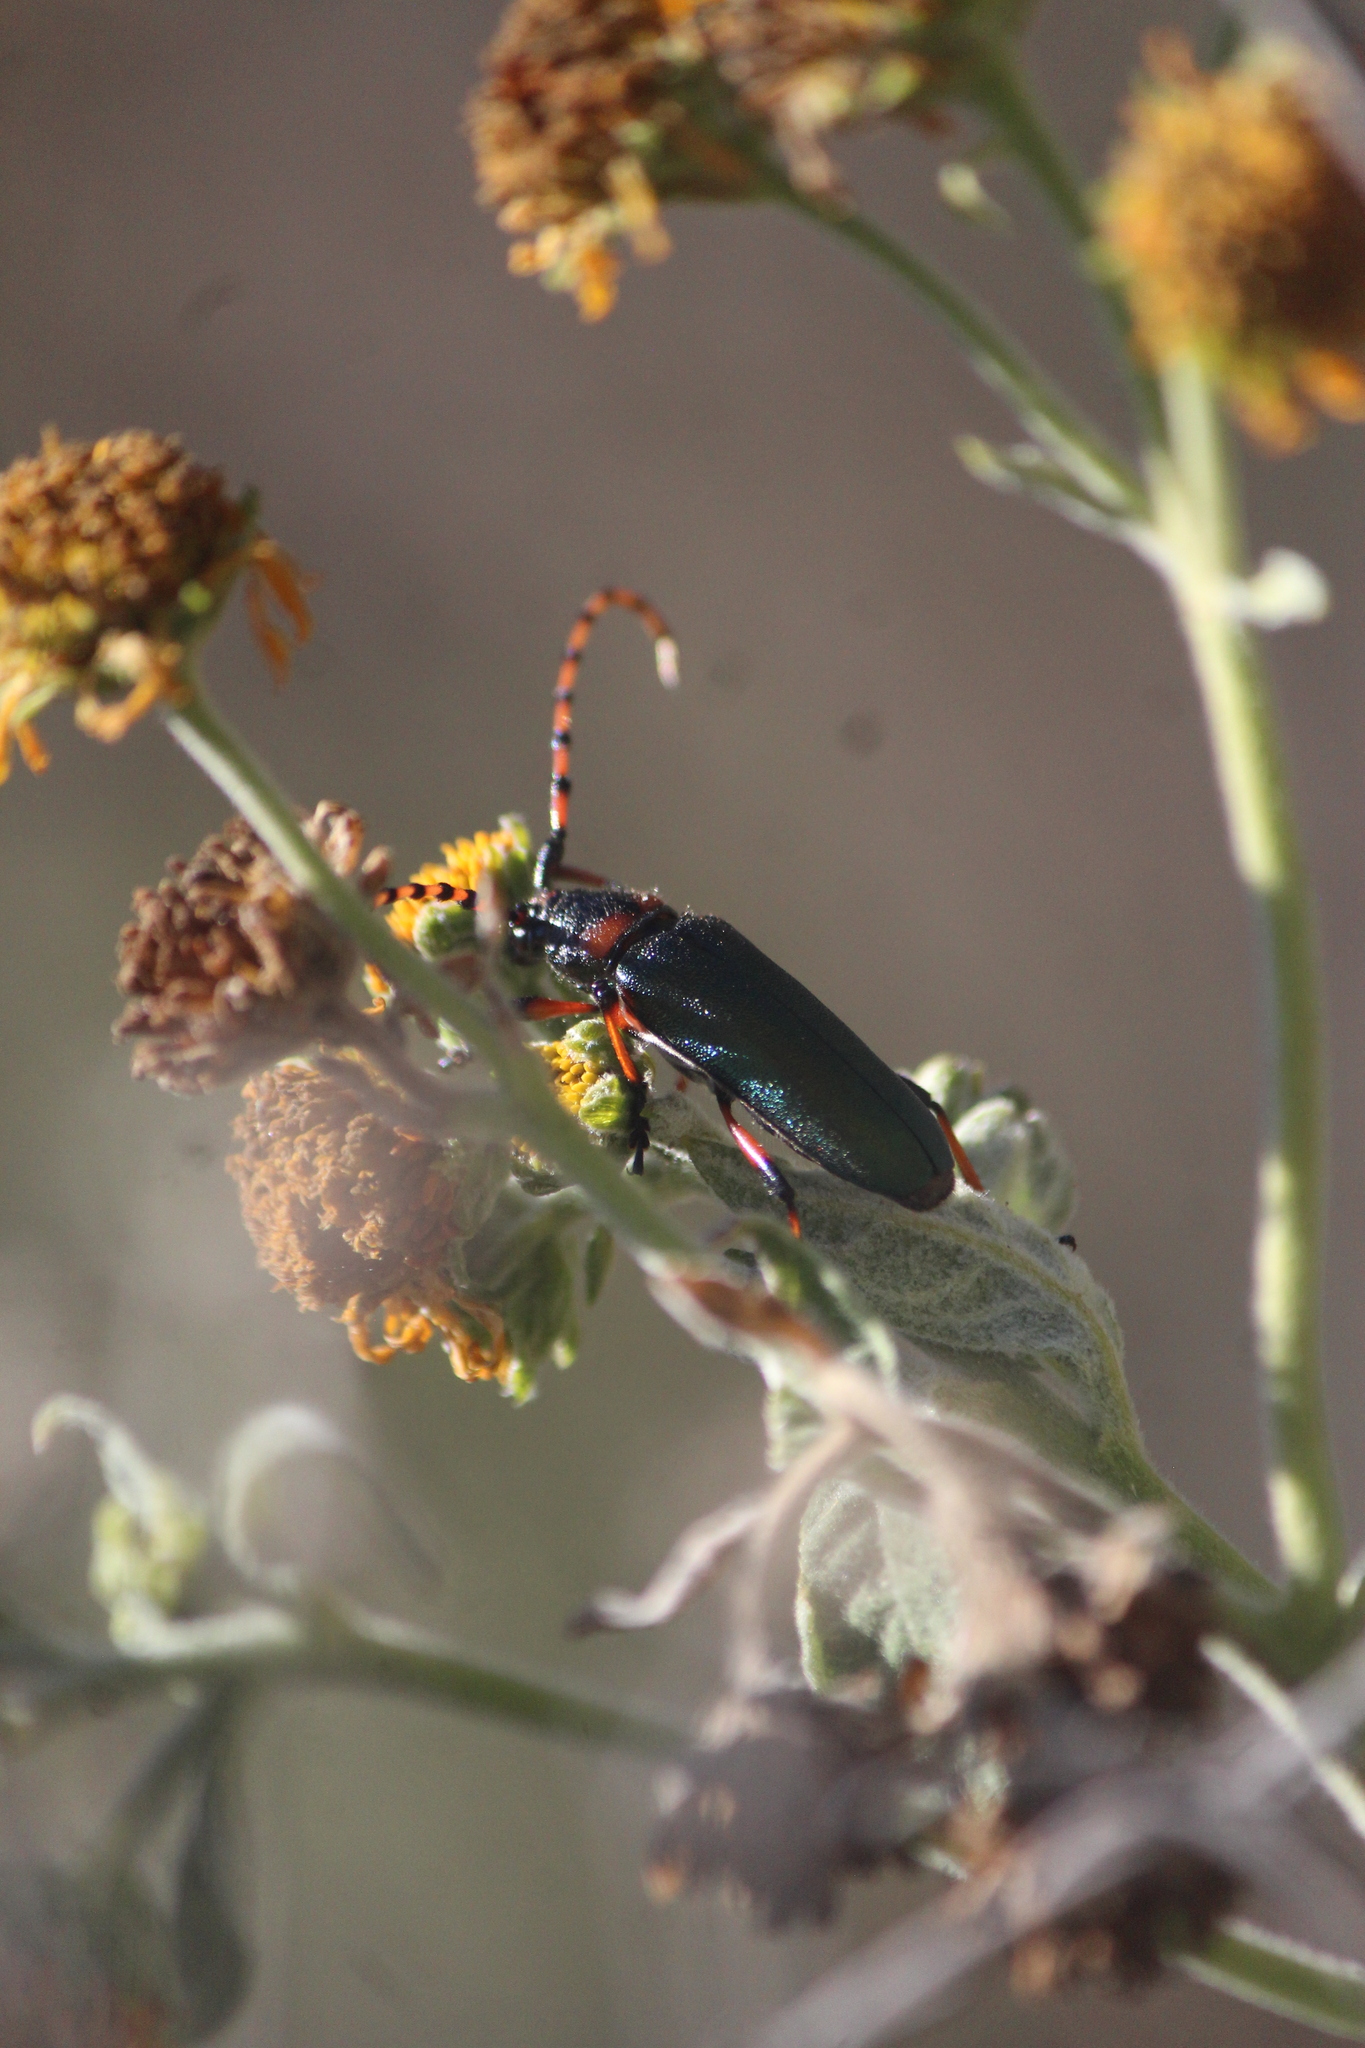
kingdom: Animalia
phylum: Arthropoda
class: Insecta
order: Coleoptera
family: Cerambycidae
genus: Stenaspis
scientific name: Stenaspis verticalis
